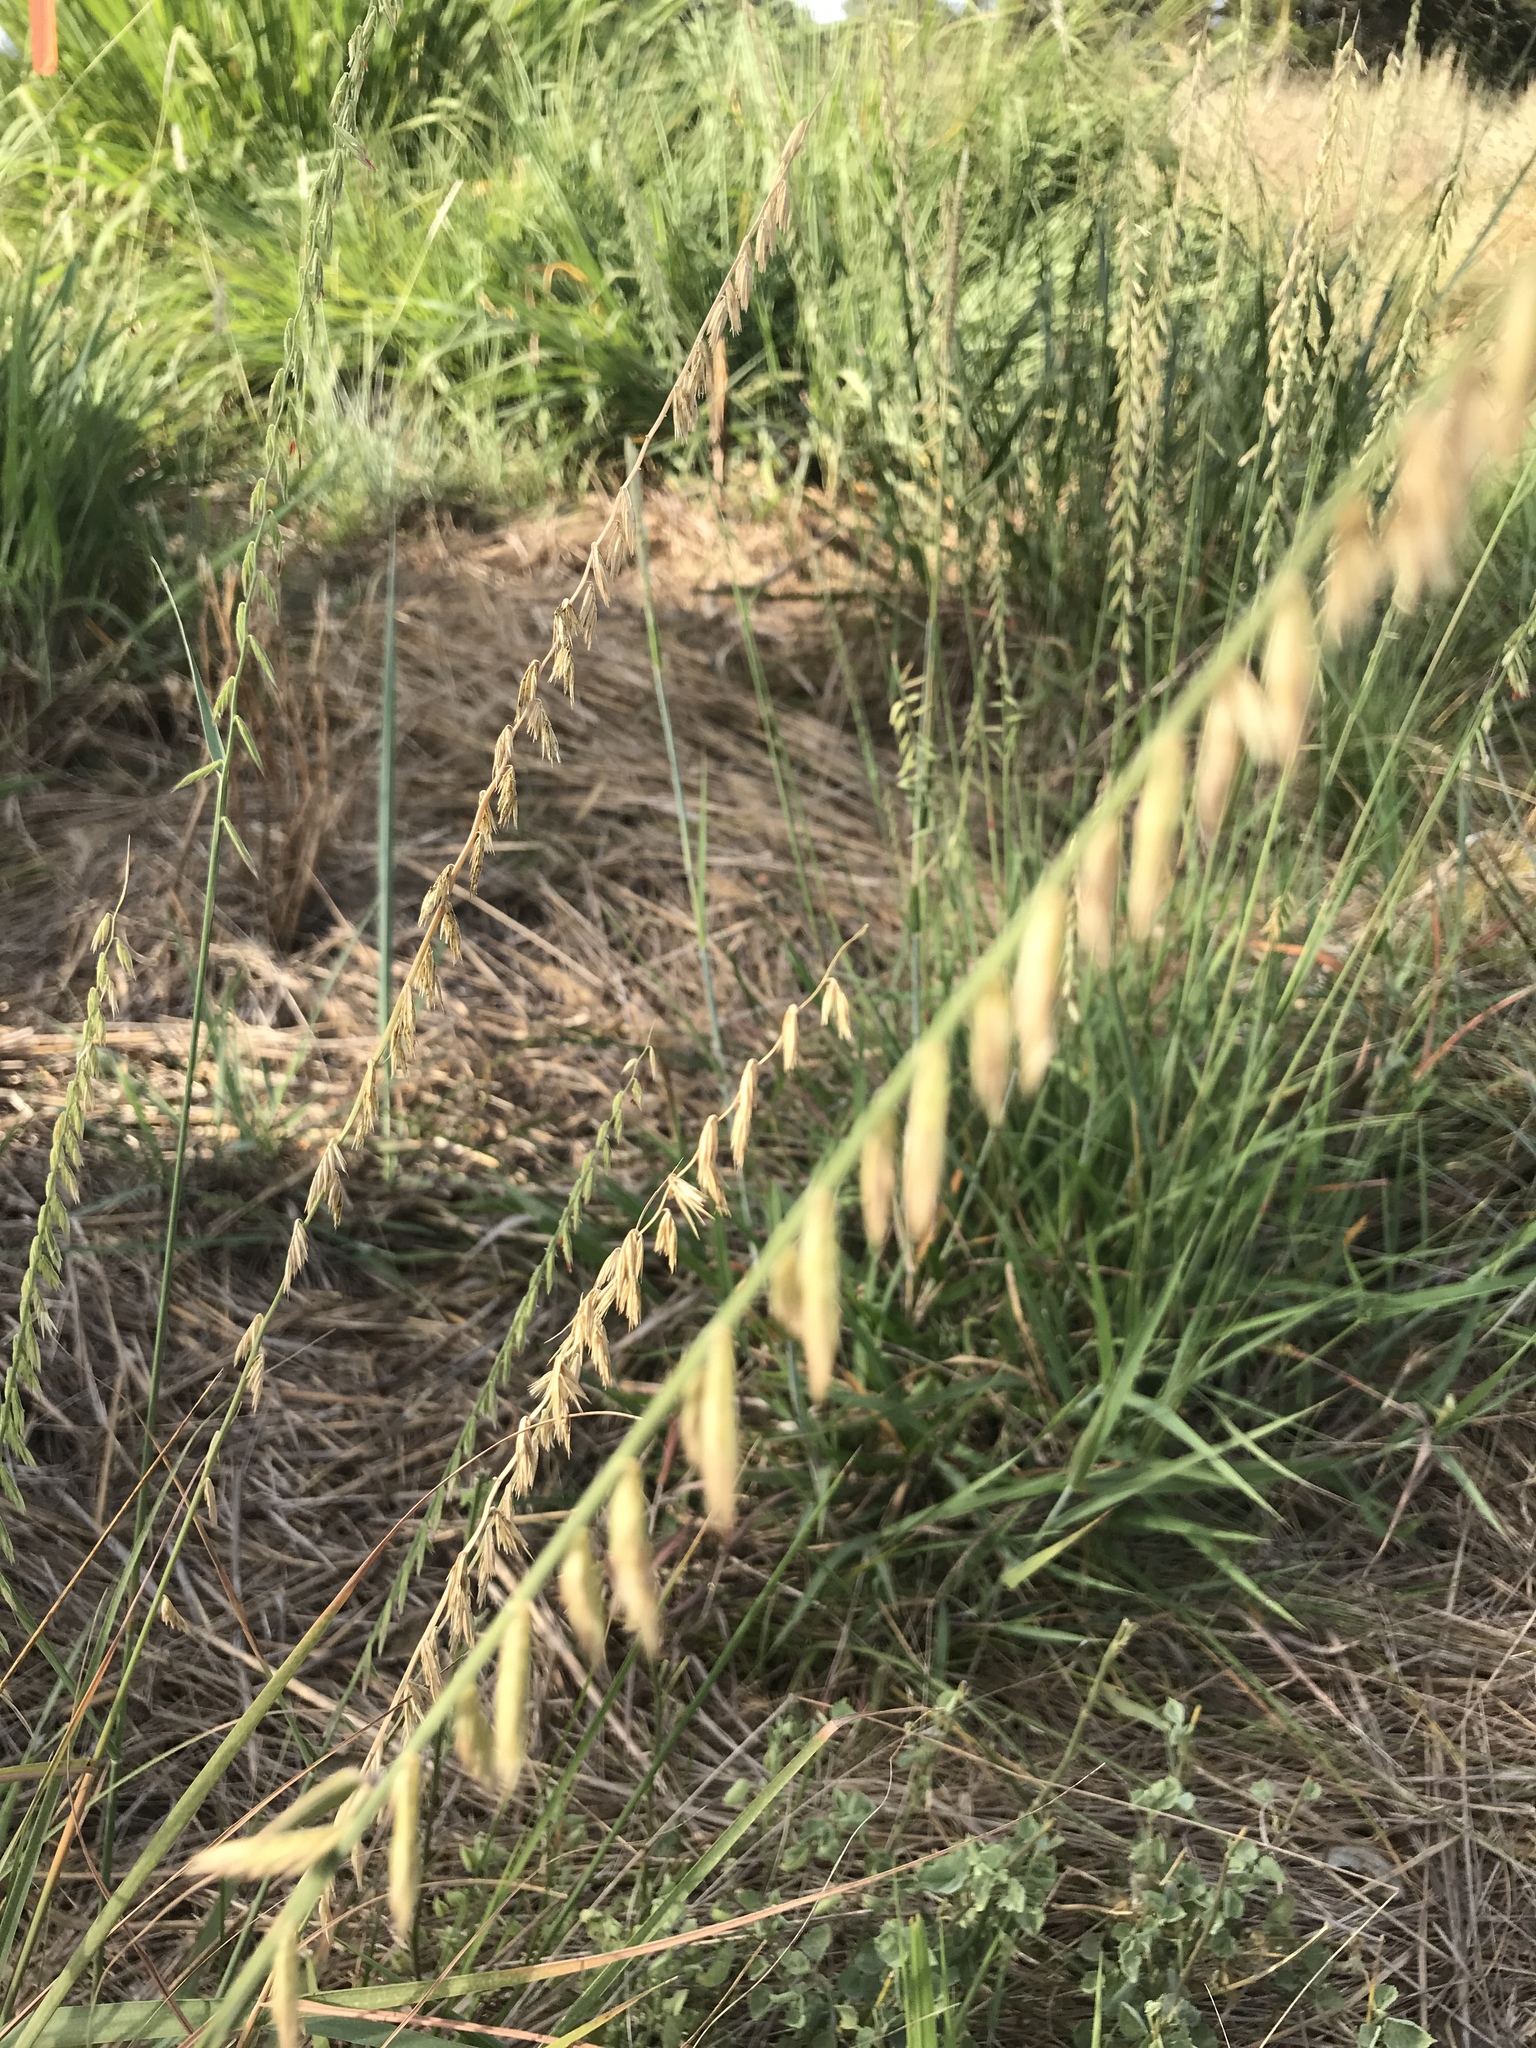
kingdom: Plantae
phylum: Tracheophyta
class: Liliopsida
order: Poales
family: Poaceae
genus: Bouteloua
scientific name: Bouteloua curtipendula
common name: Side-oats grama
